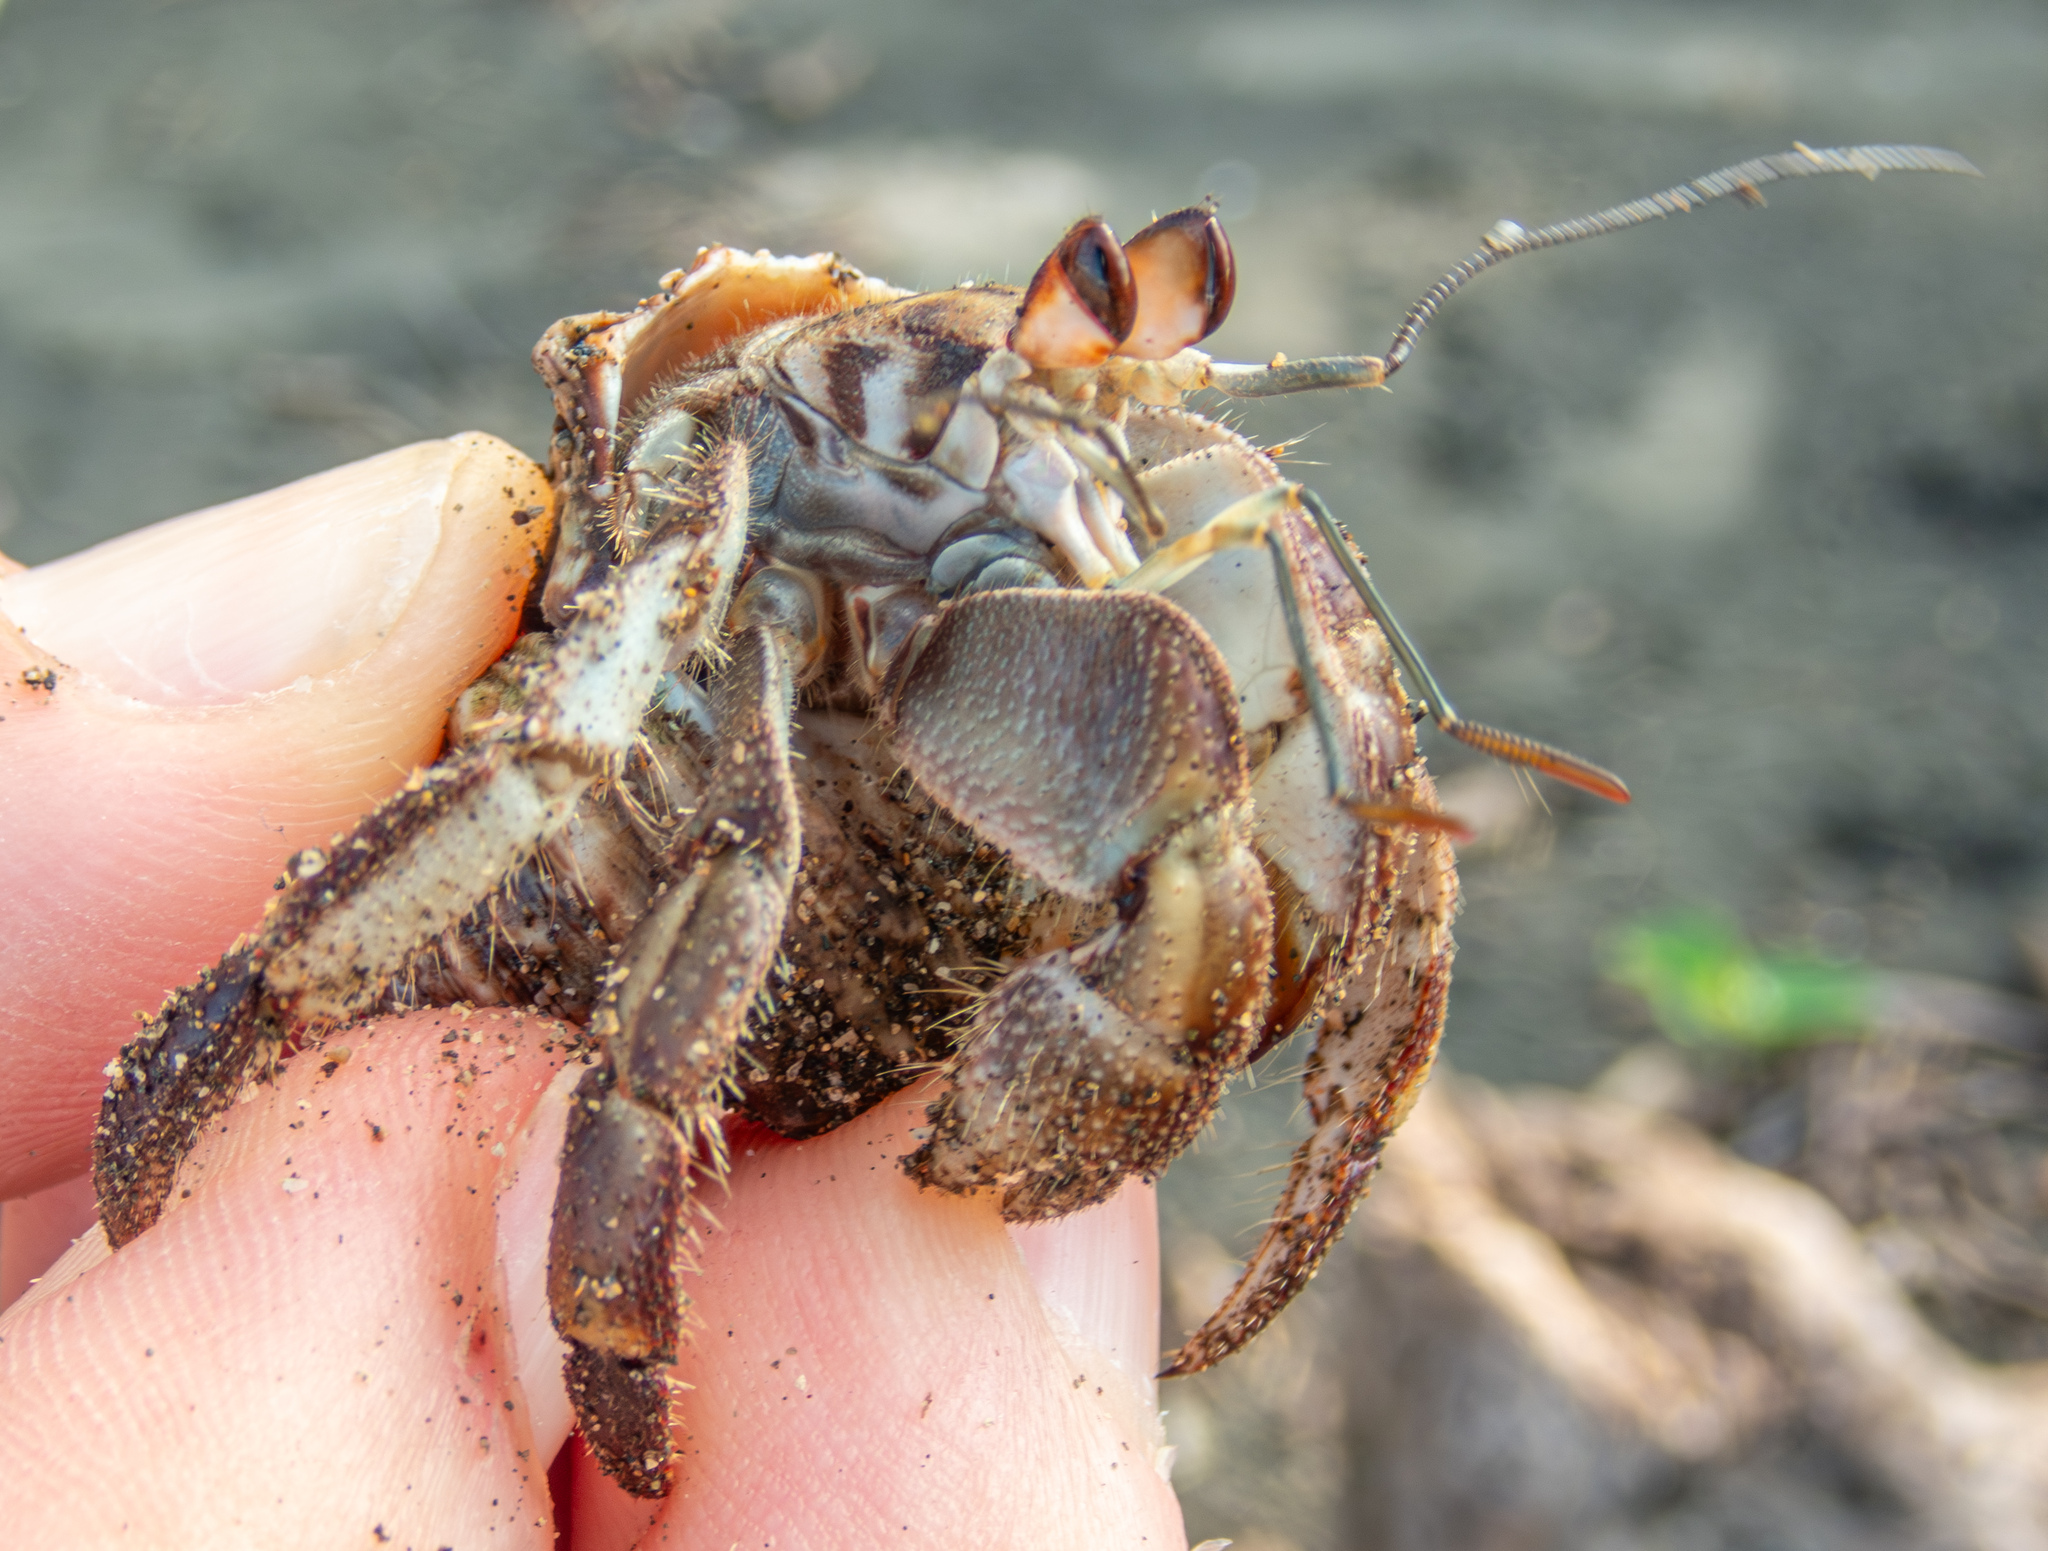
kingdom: Animalia
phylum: Arthropoda
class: Malacostraca
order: Decapoda
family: Coenobitidae
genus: Coenobita
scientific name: Coenobita compressus
